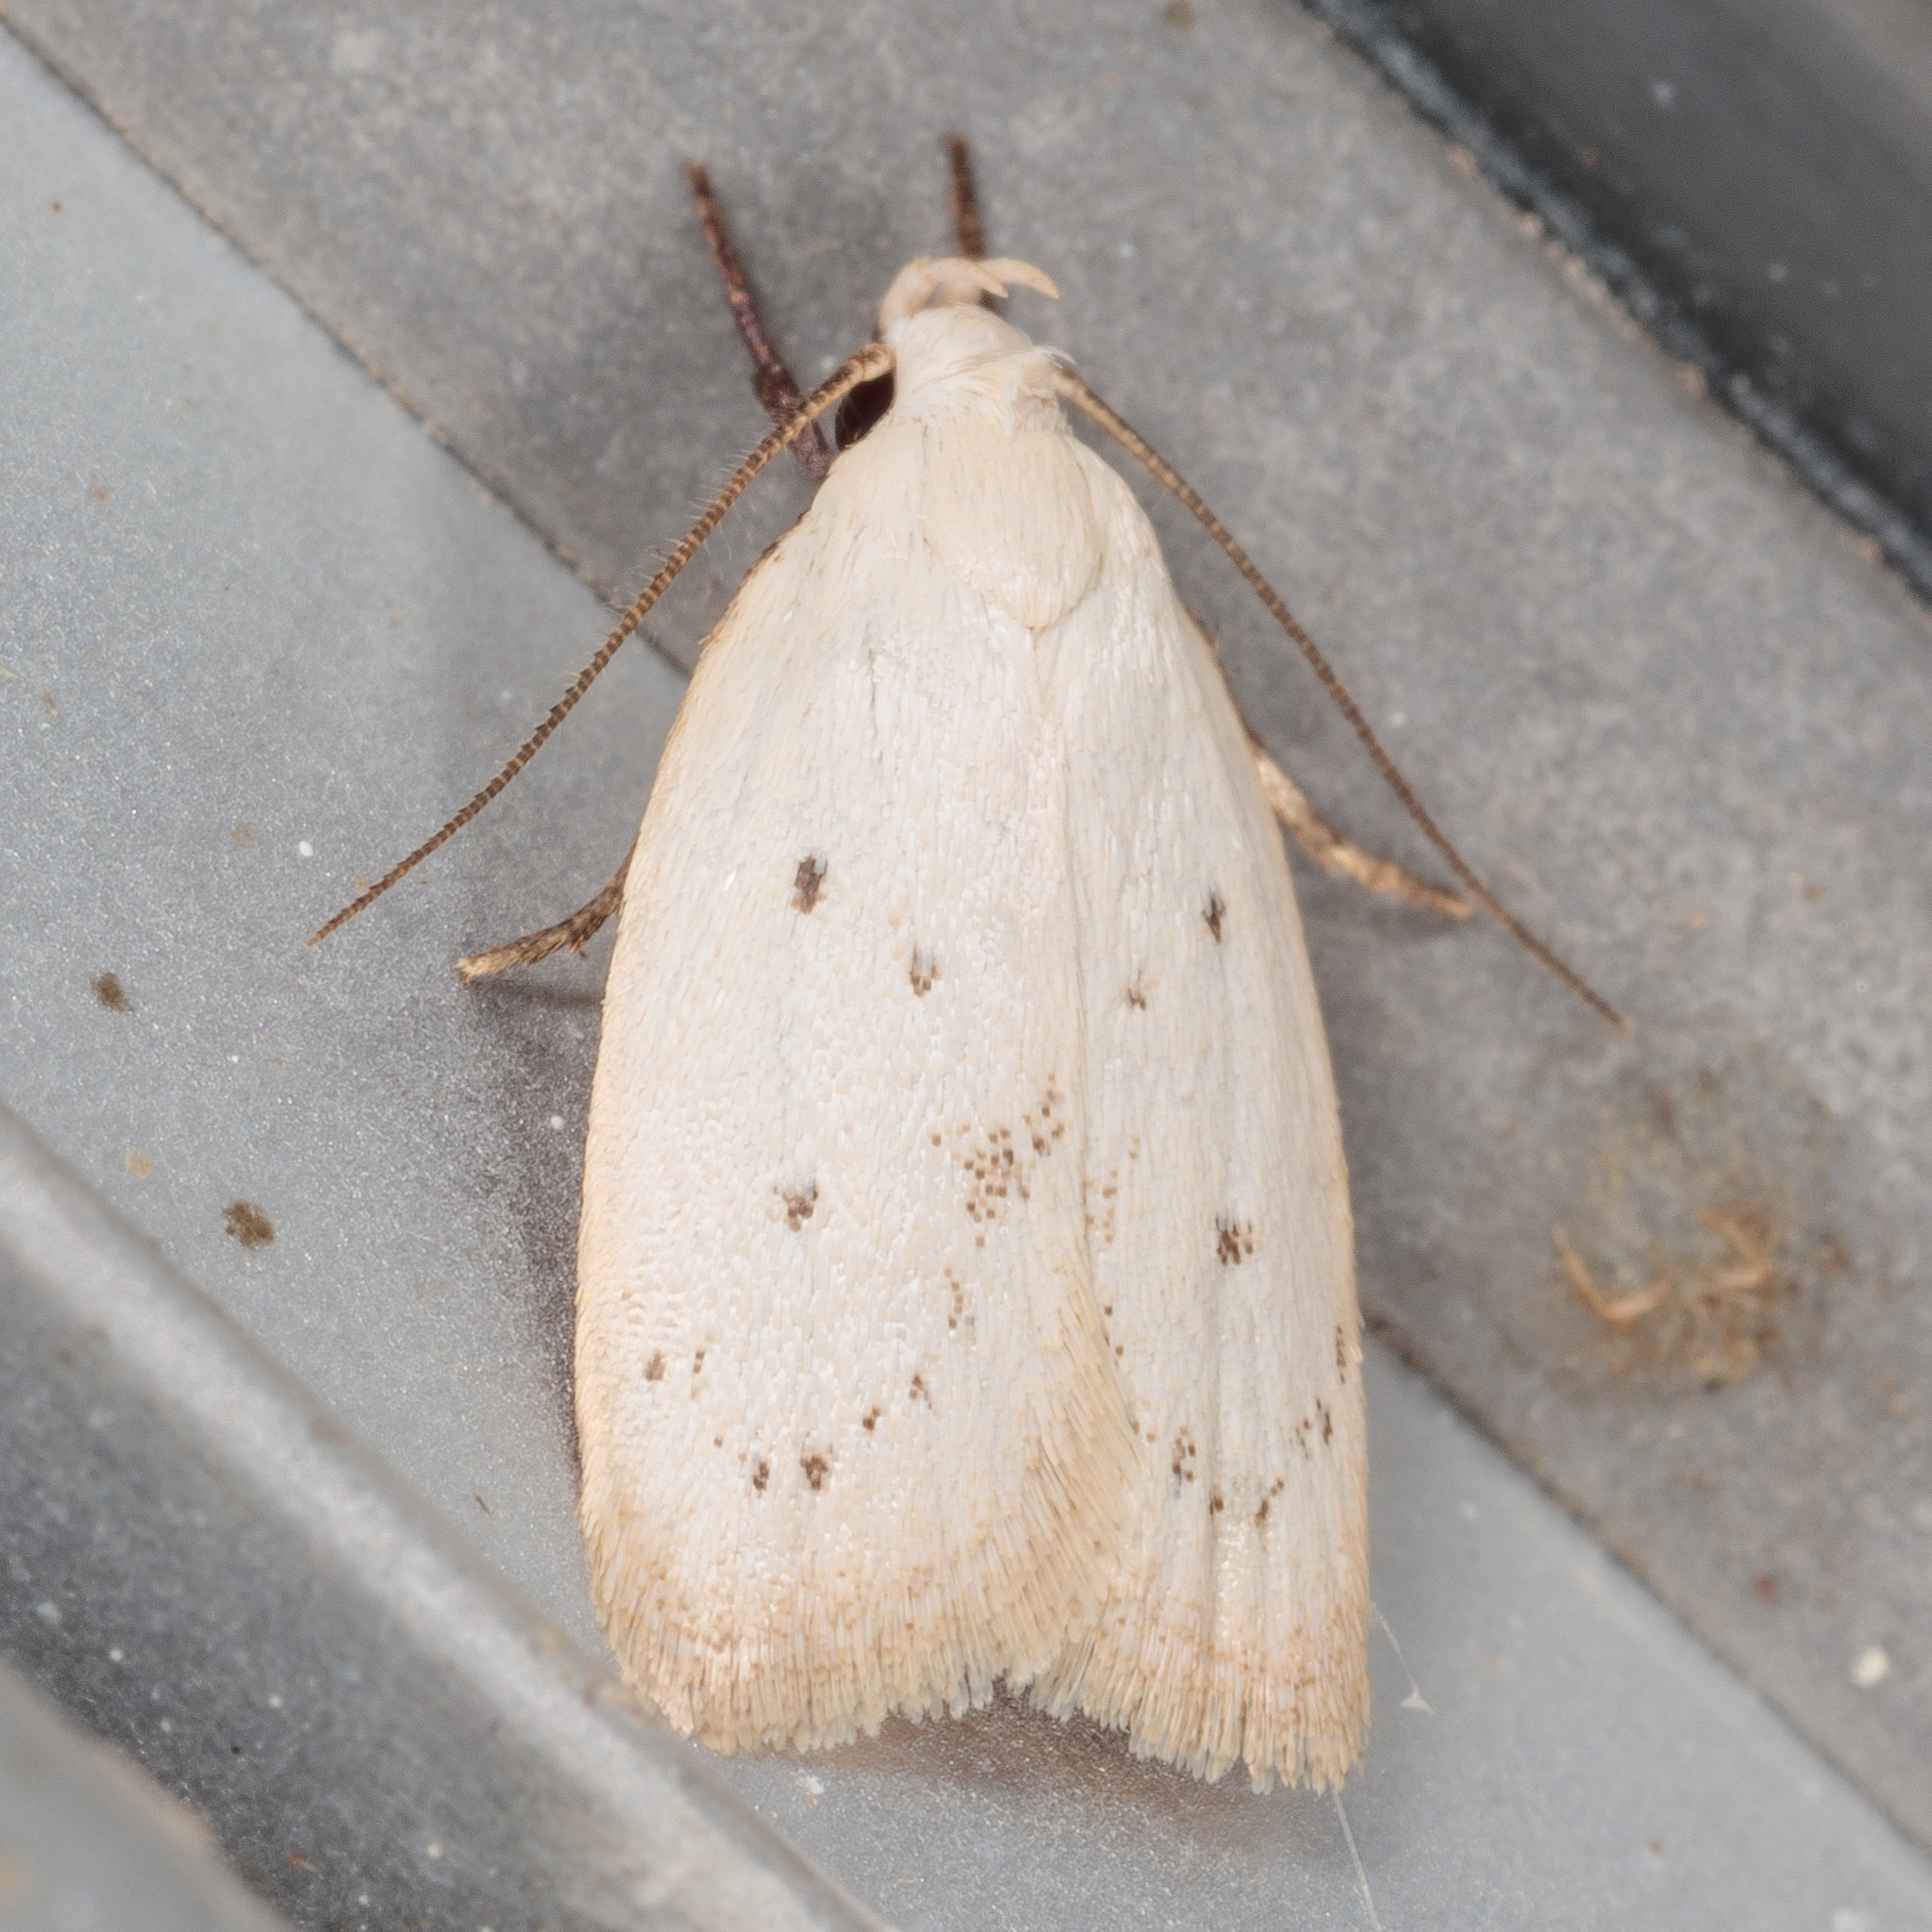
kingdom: Animalia
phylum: Arthropoda
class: Insecta
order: Lepidoptera
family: Oecophoridae
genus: Inga
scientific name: Inga cretacea
